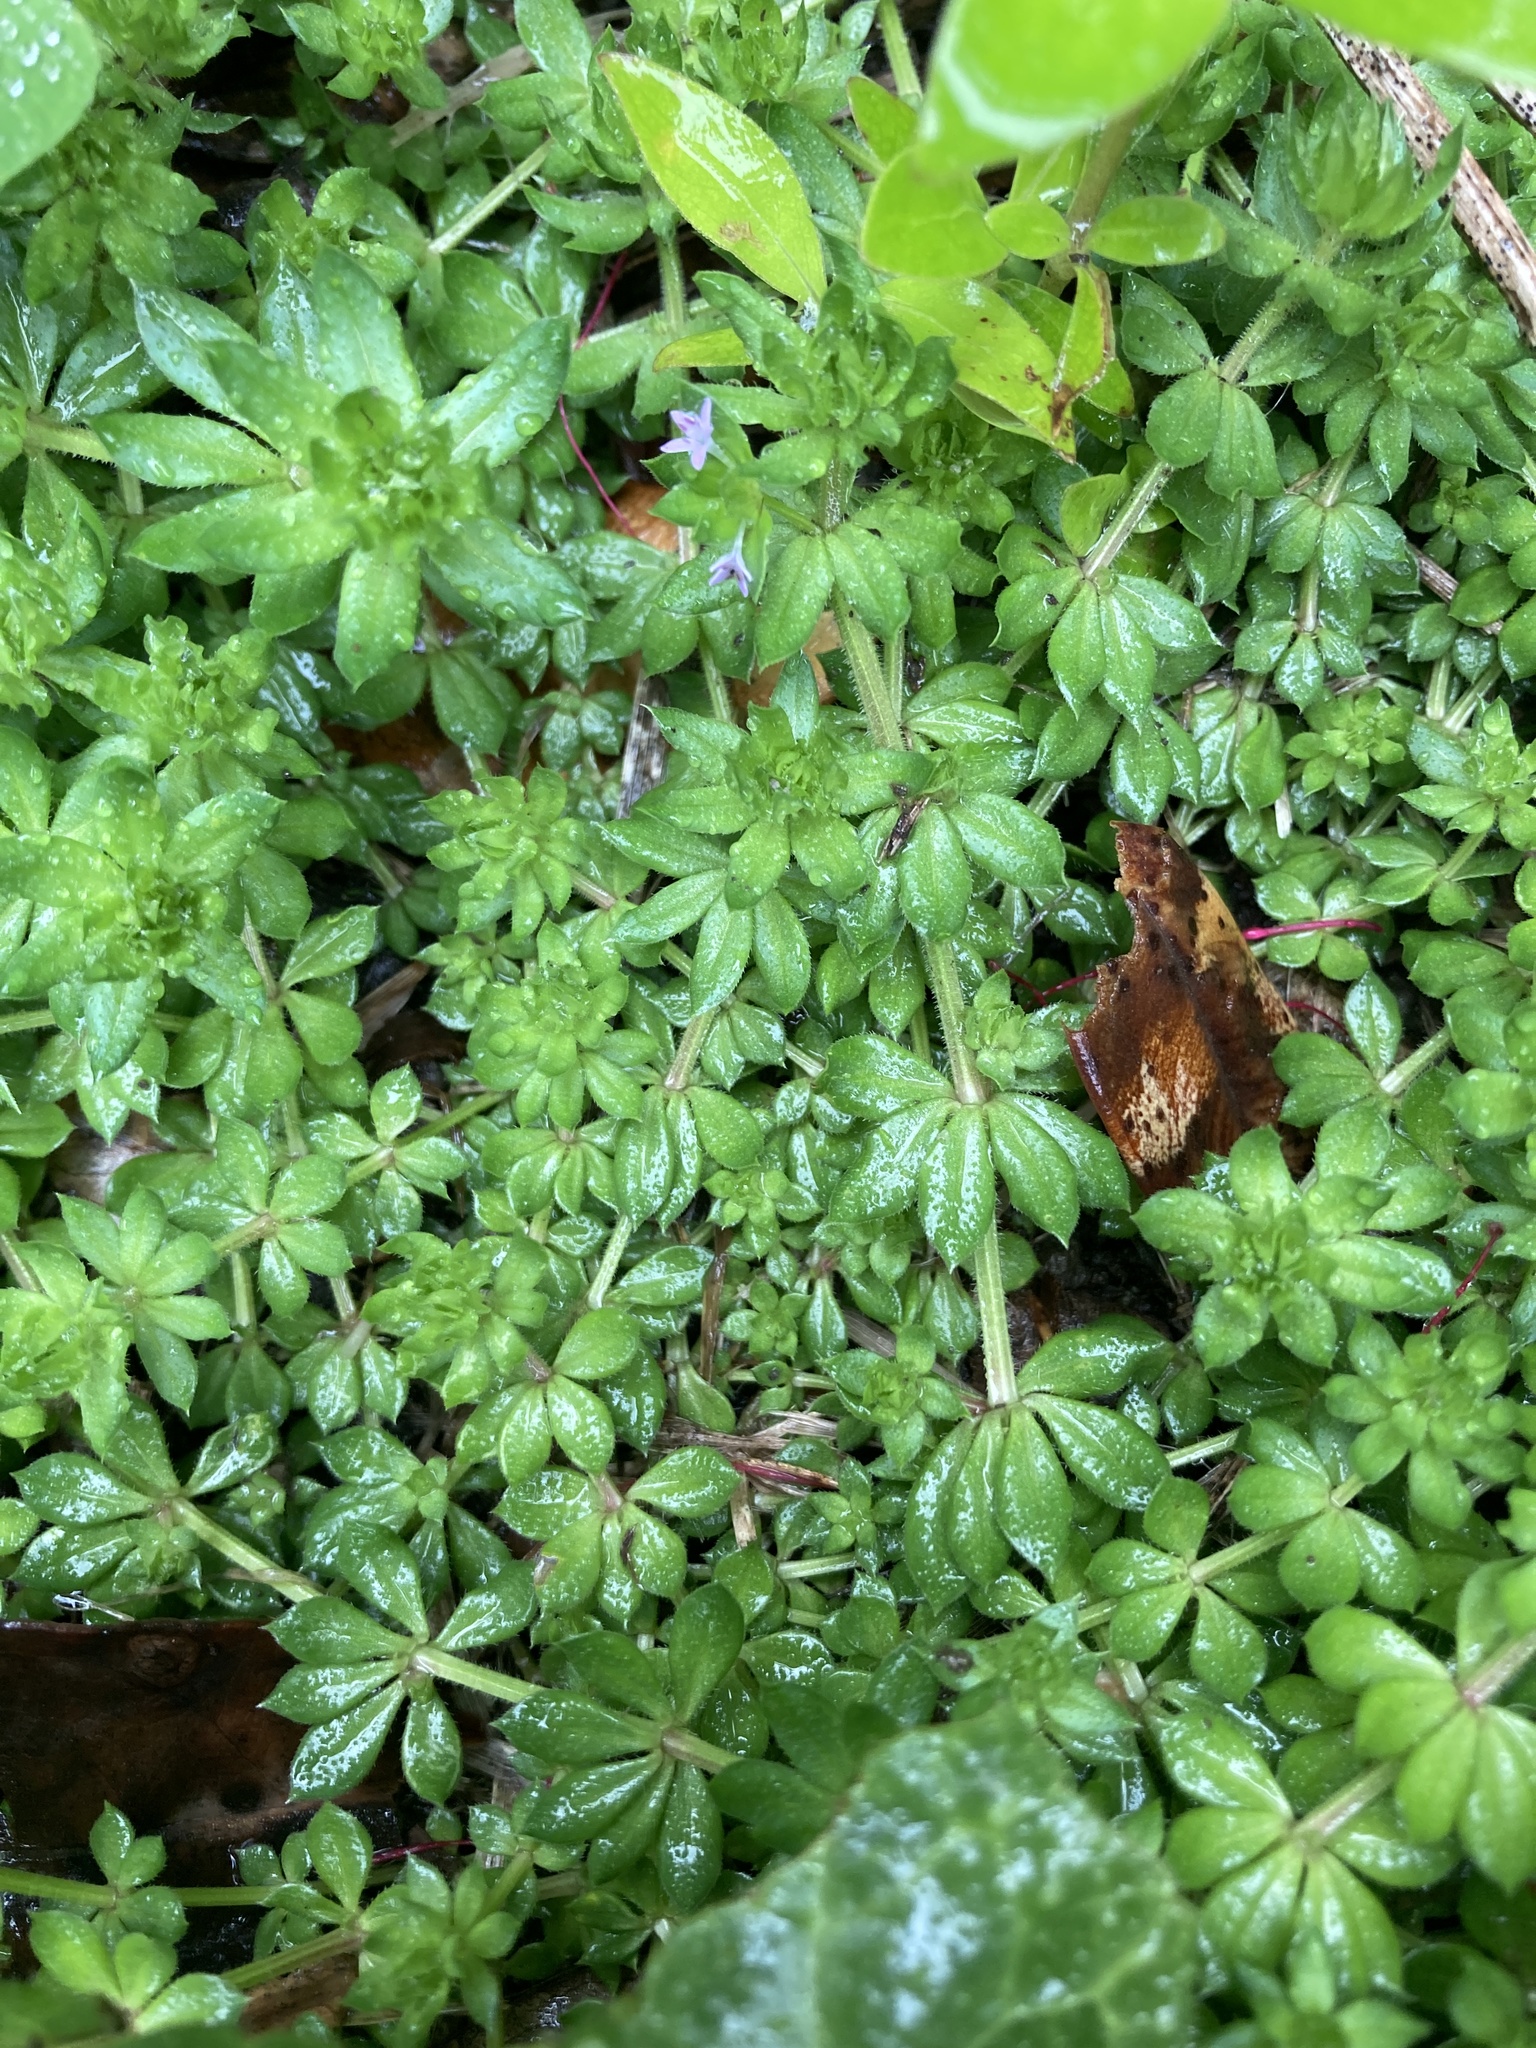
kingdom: Plantae
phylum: Tracheophyta
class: Magnoliopsida
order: Gentianales
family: Rubiaceae
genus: Sherardia
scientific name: Sherardia arvensis
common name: Field madder
